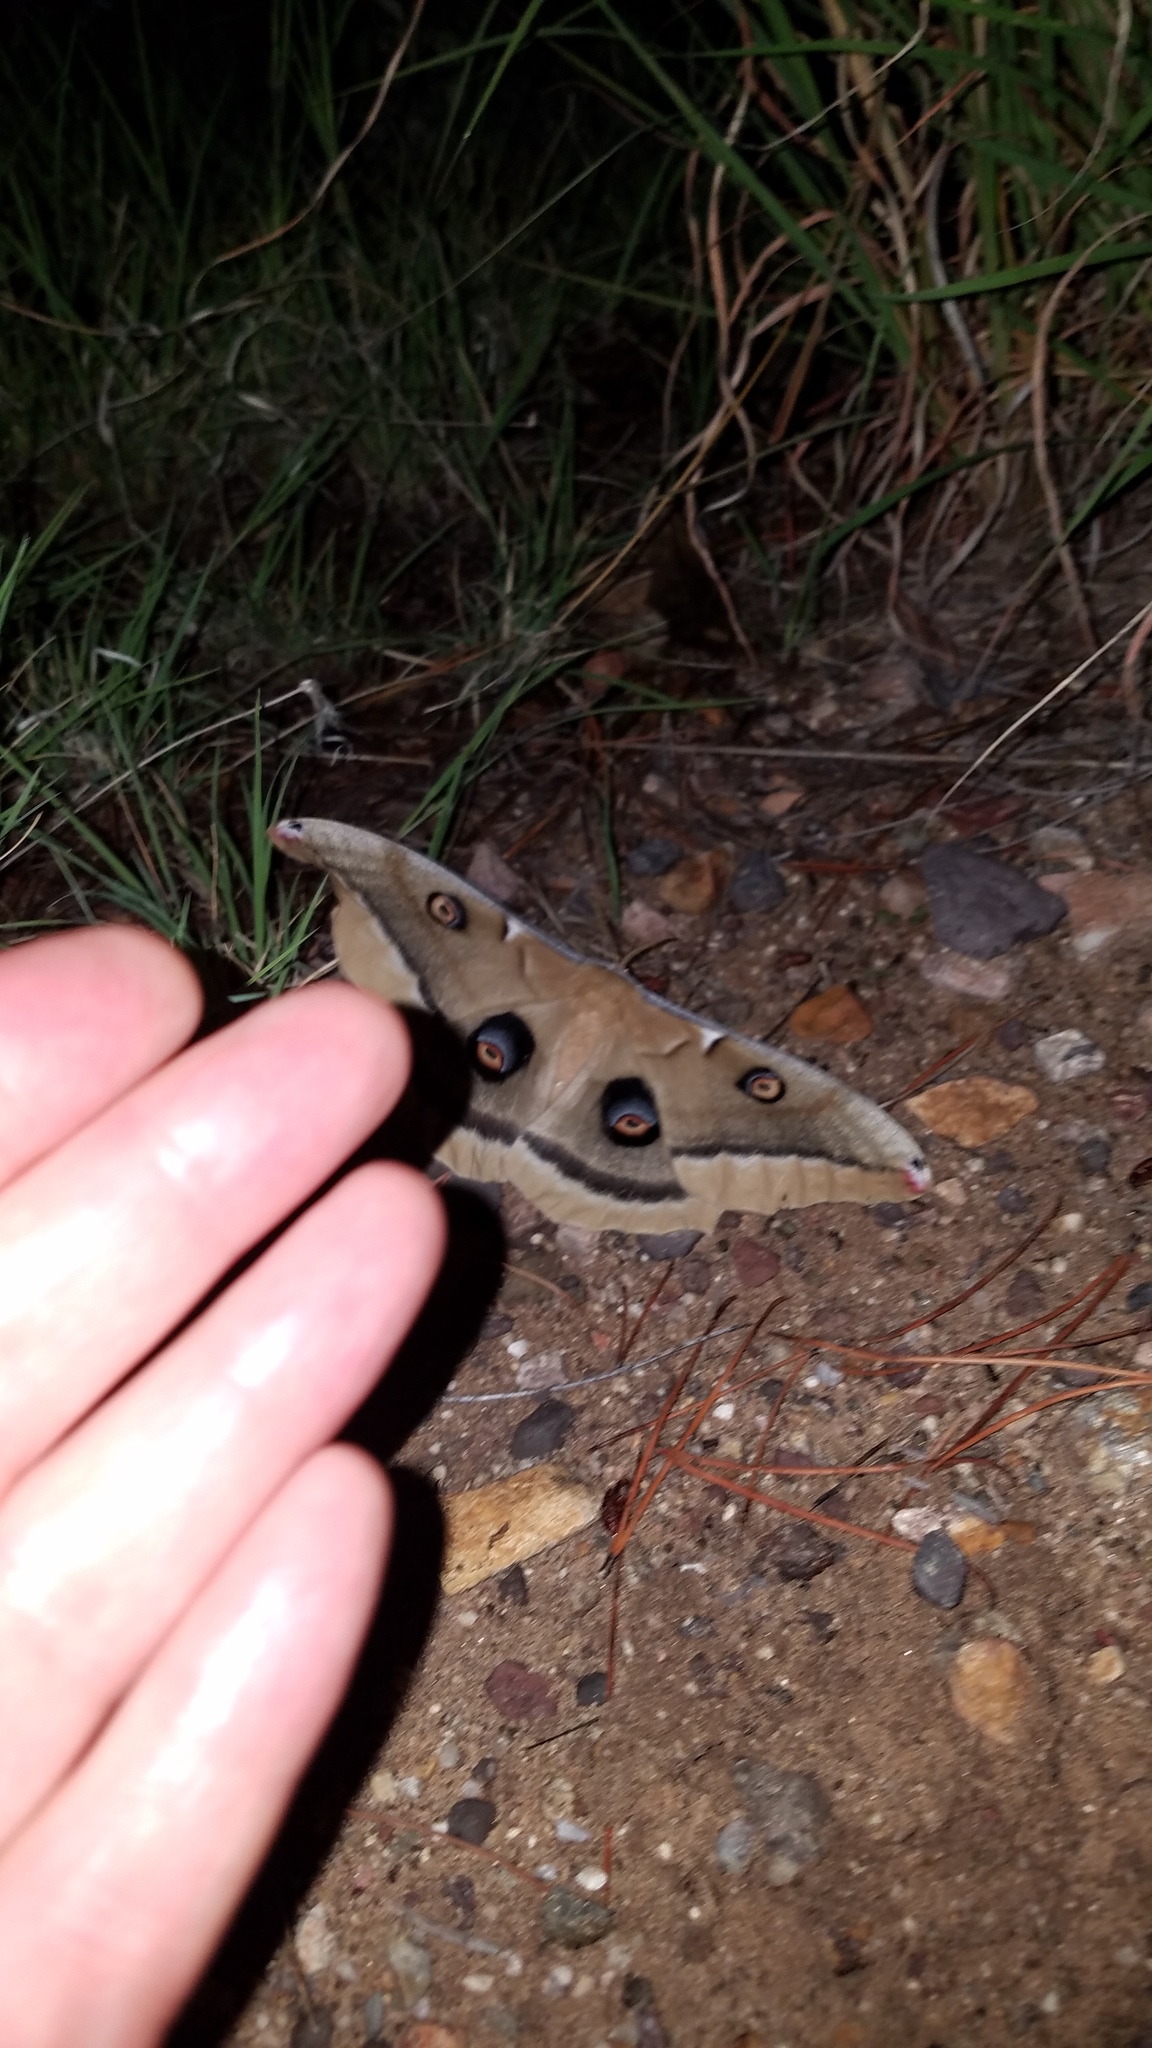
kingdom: Animalia
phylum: Arthropoda
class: Insecta
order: Lepidoptera
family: Saturniidae
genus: Antheraea
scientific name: Antheraea oculea
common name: Arizona polyphemus moth
